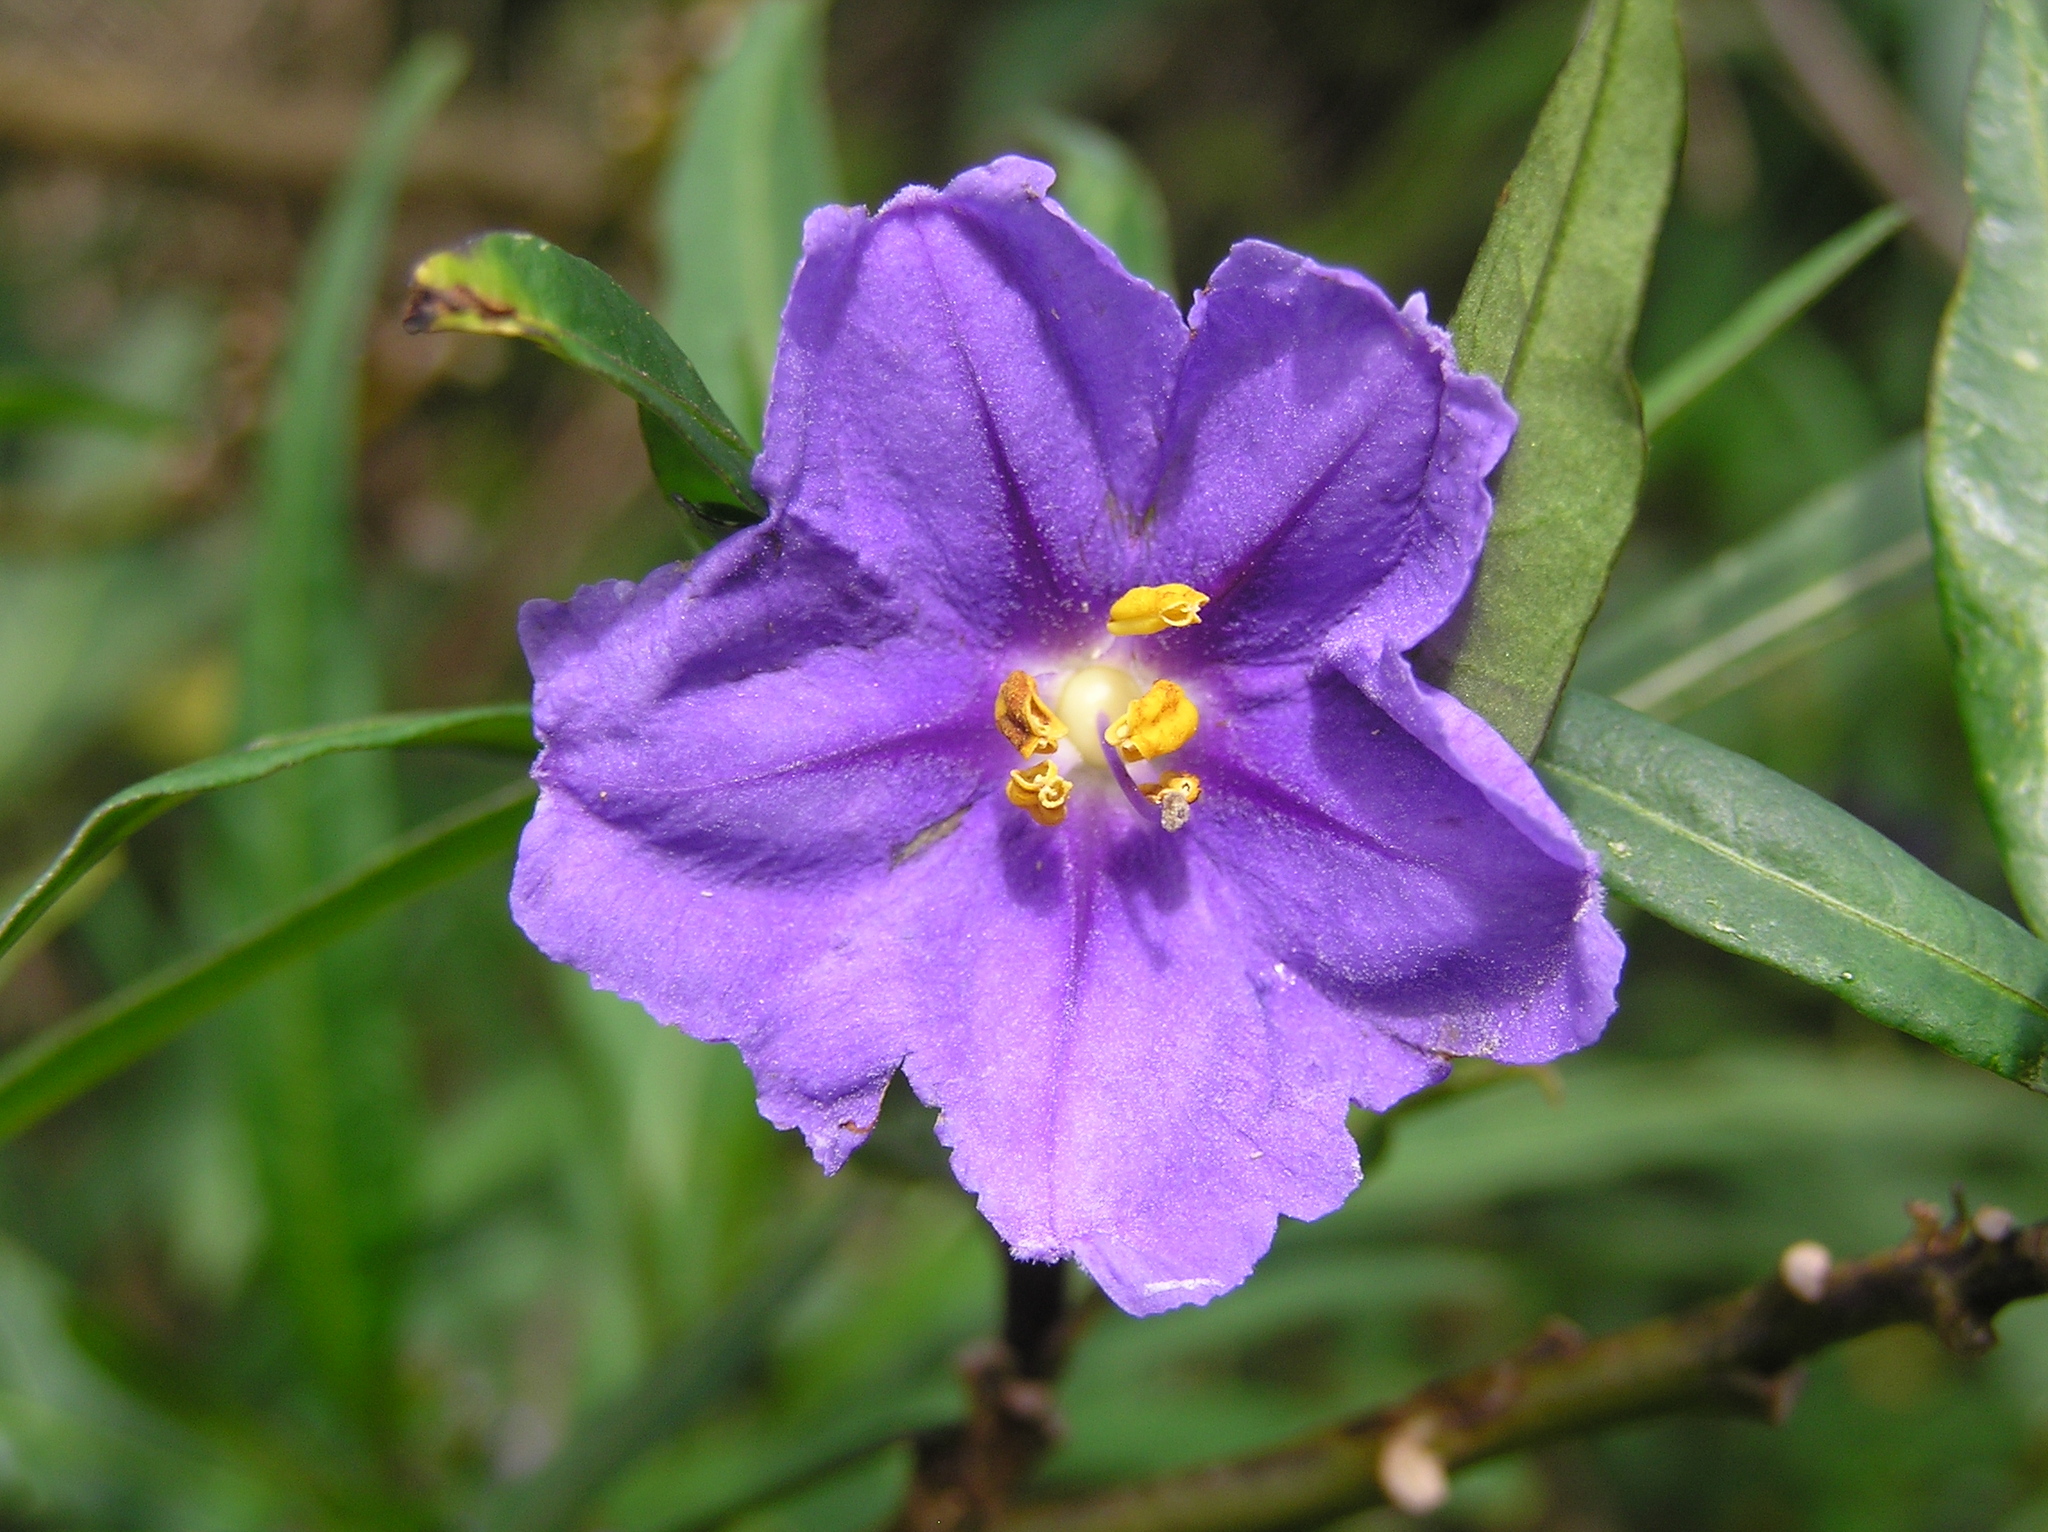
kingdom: Plantae
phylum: Tracheophyta
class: Magnoliopsida
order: Solanales
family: Solanaceae
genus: Solanum
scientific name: Solanum laciniatum
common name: Kangaroo-apple
